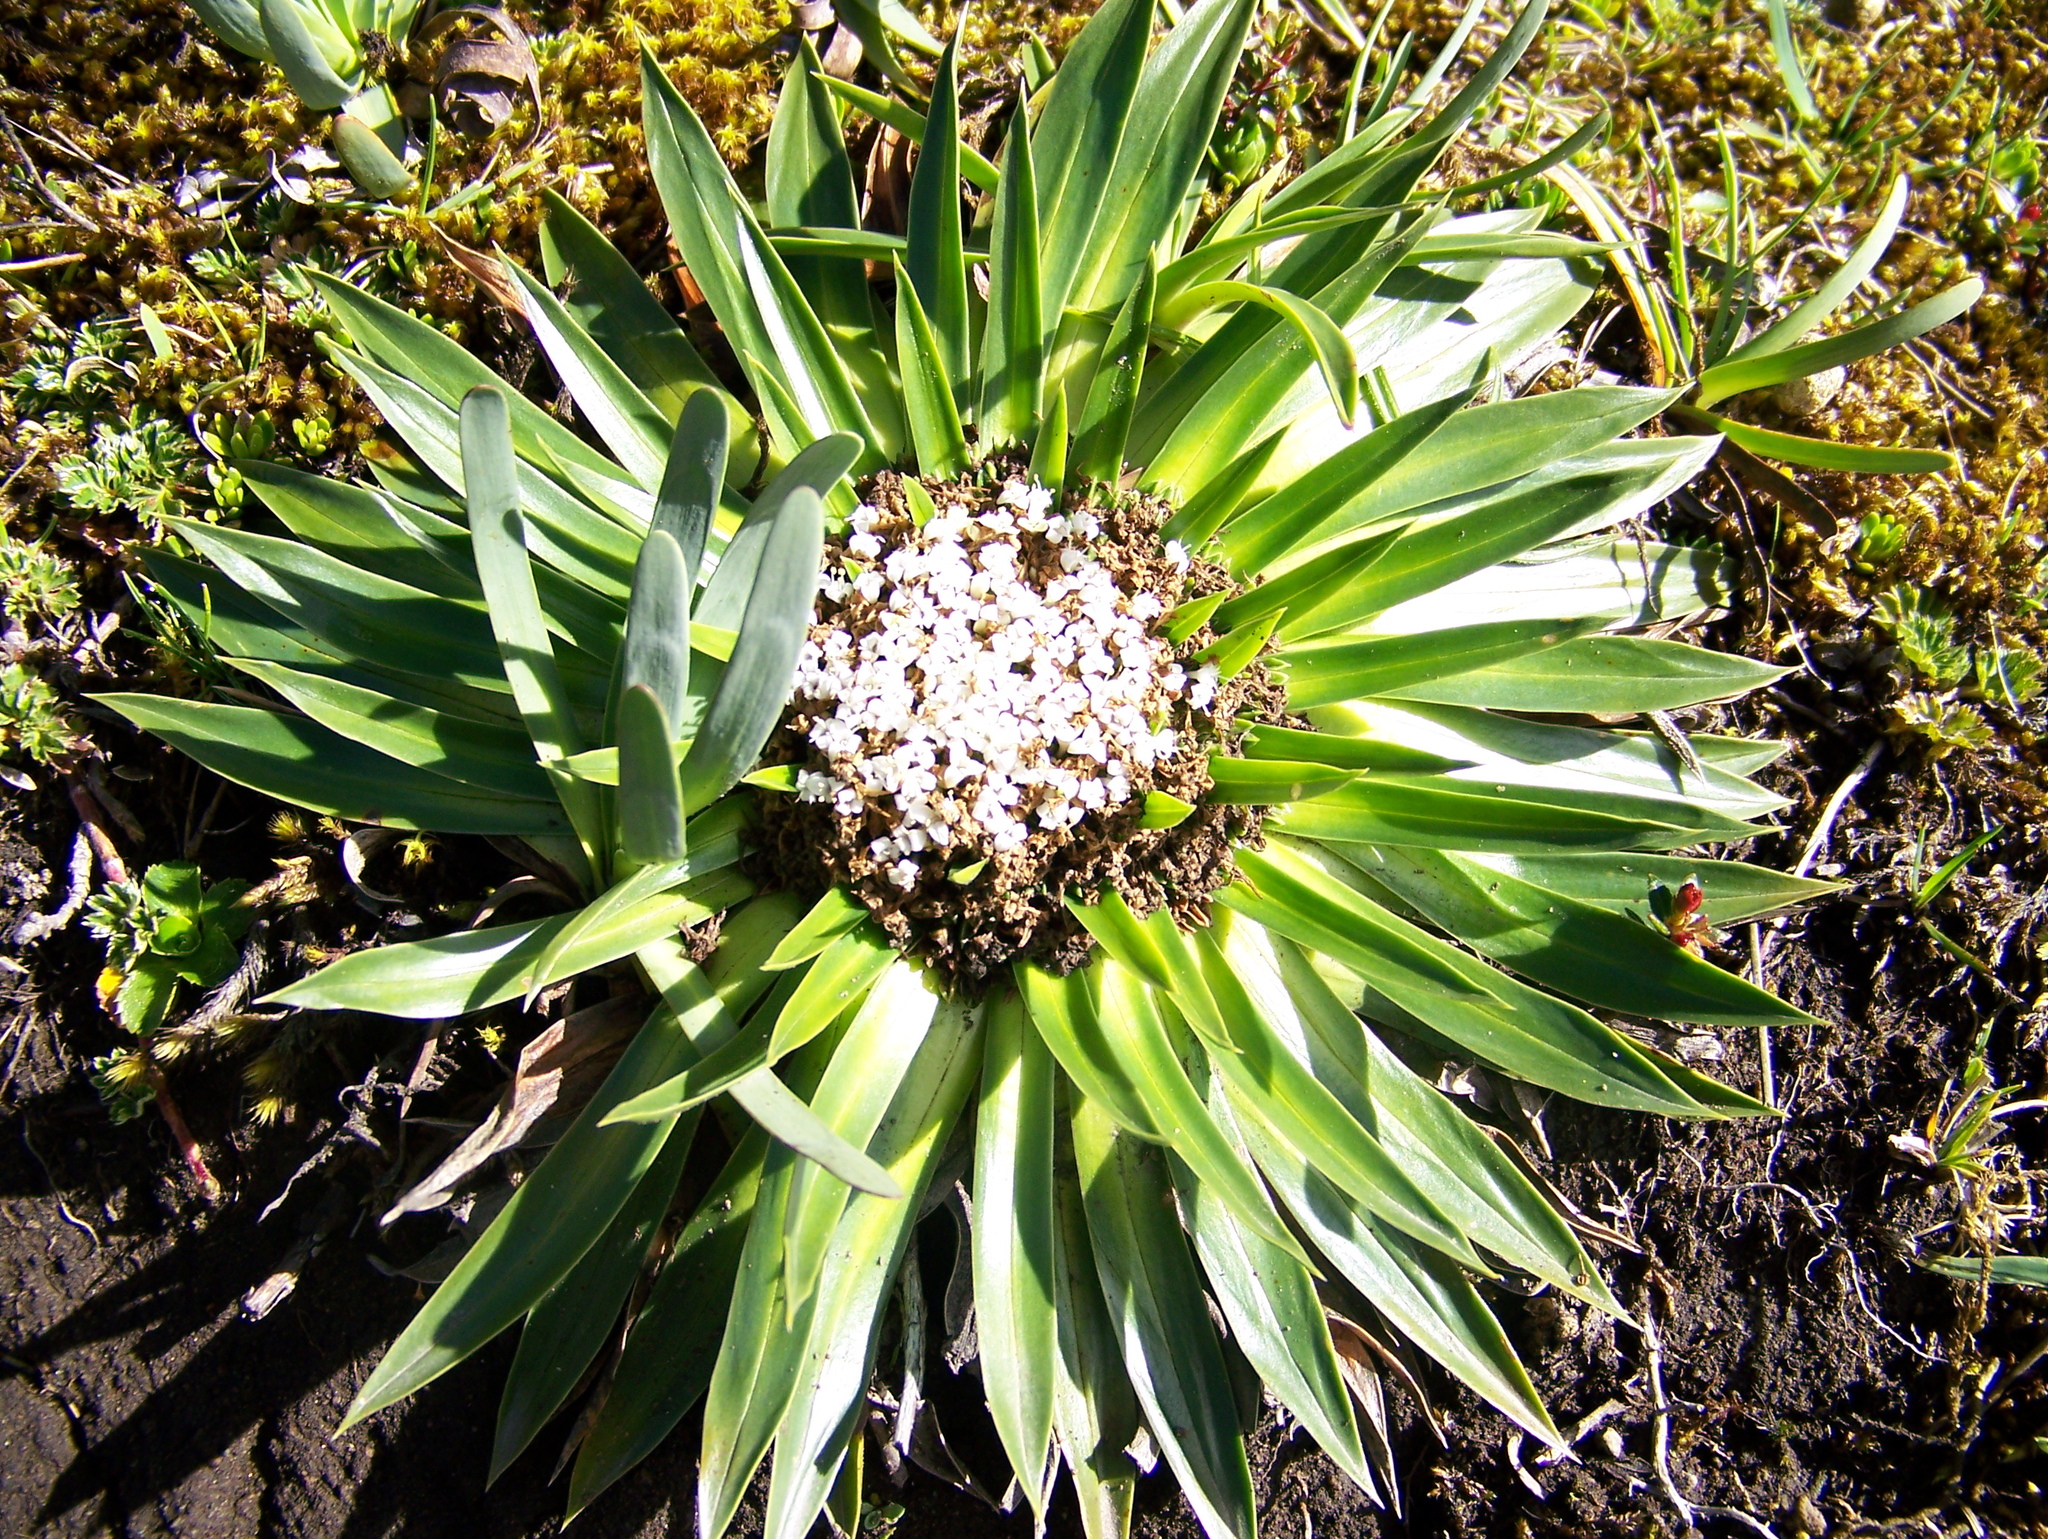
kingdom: Plantae
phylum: Tracheophyta
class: Magnoliopsida
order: Dipsacales
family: Caprifoliaceae
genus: Valeriana
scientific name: Valeriana rigida
